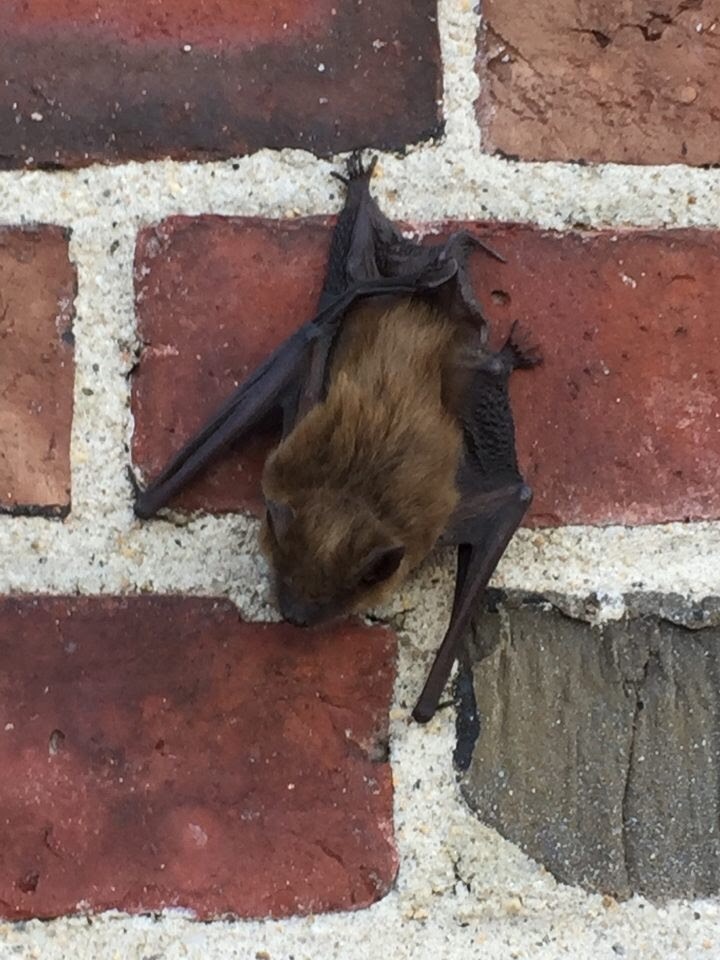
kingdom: Animalia
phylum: Chordata
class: Mammalia
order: Chiroptera
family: Vespertilionidae
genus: Eptesicus
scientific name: Eptesicus fuscus
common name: Big brown bat
